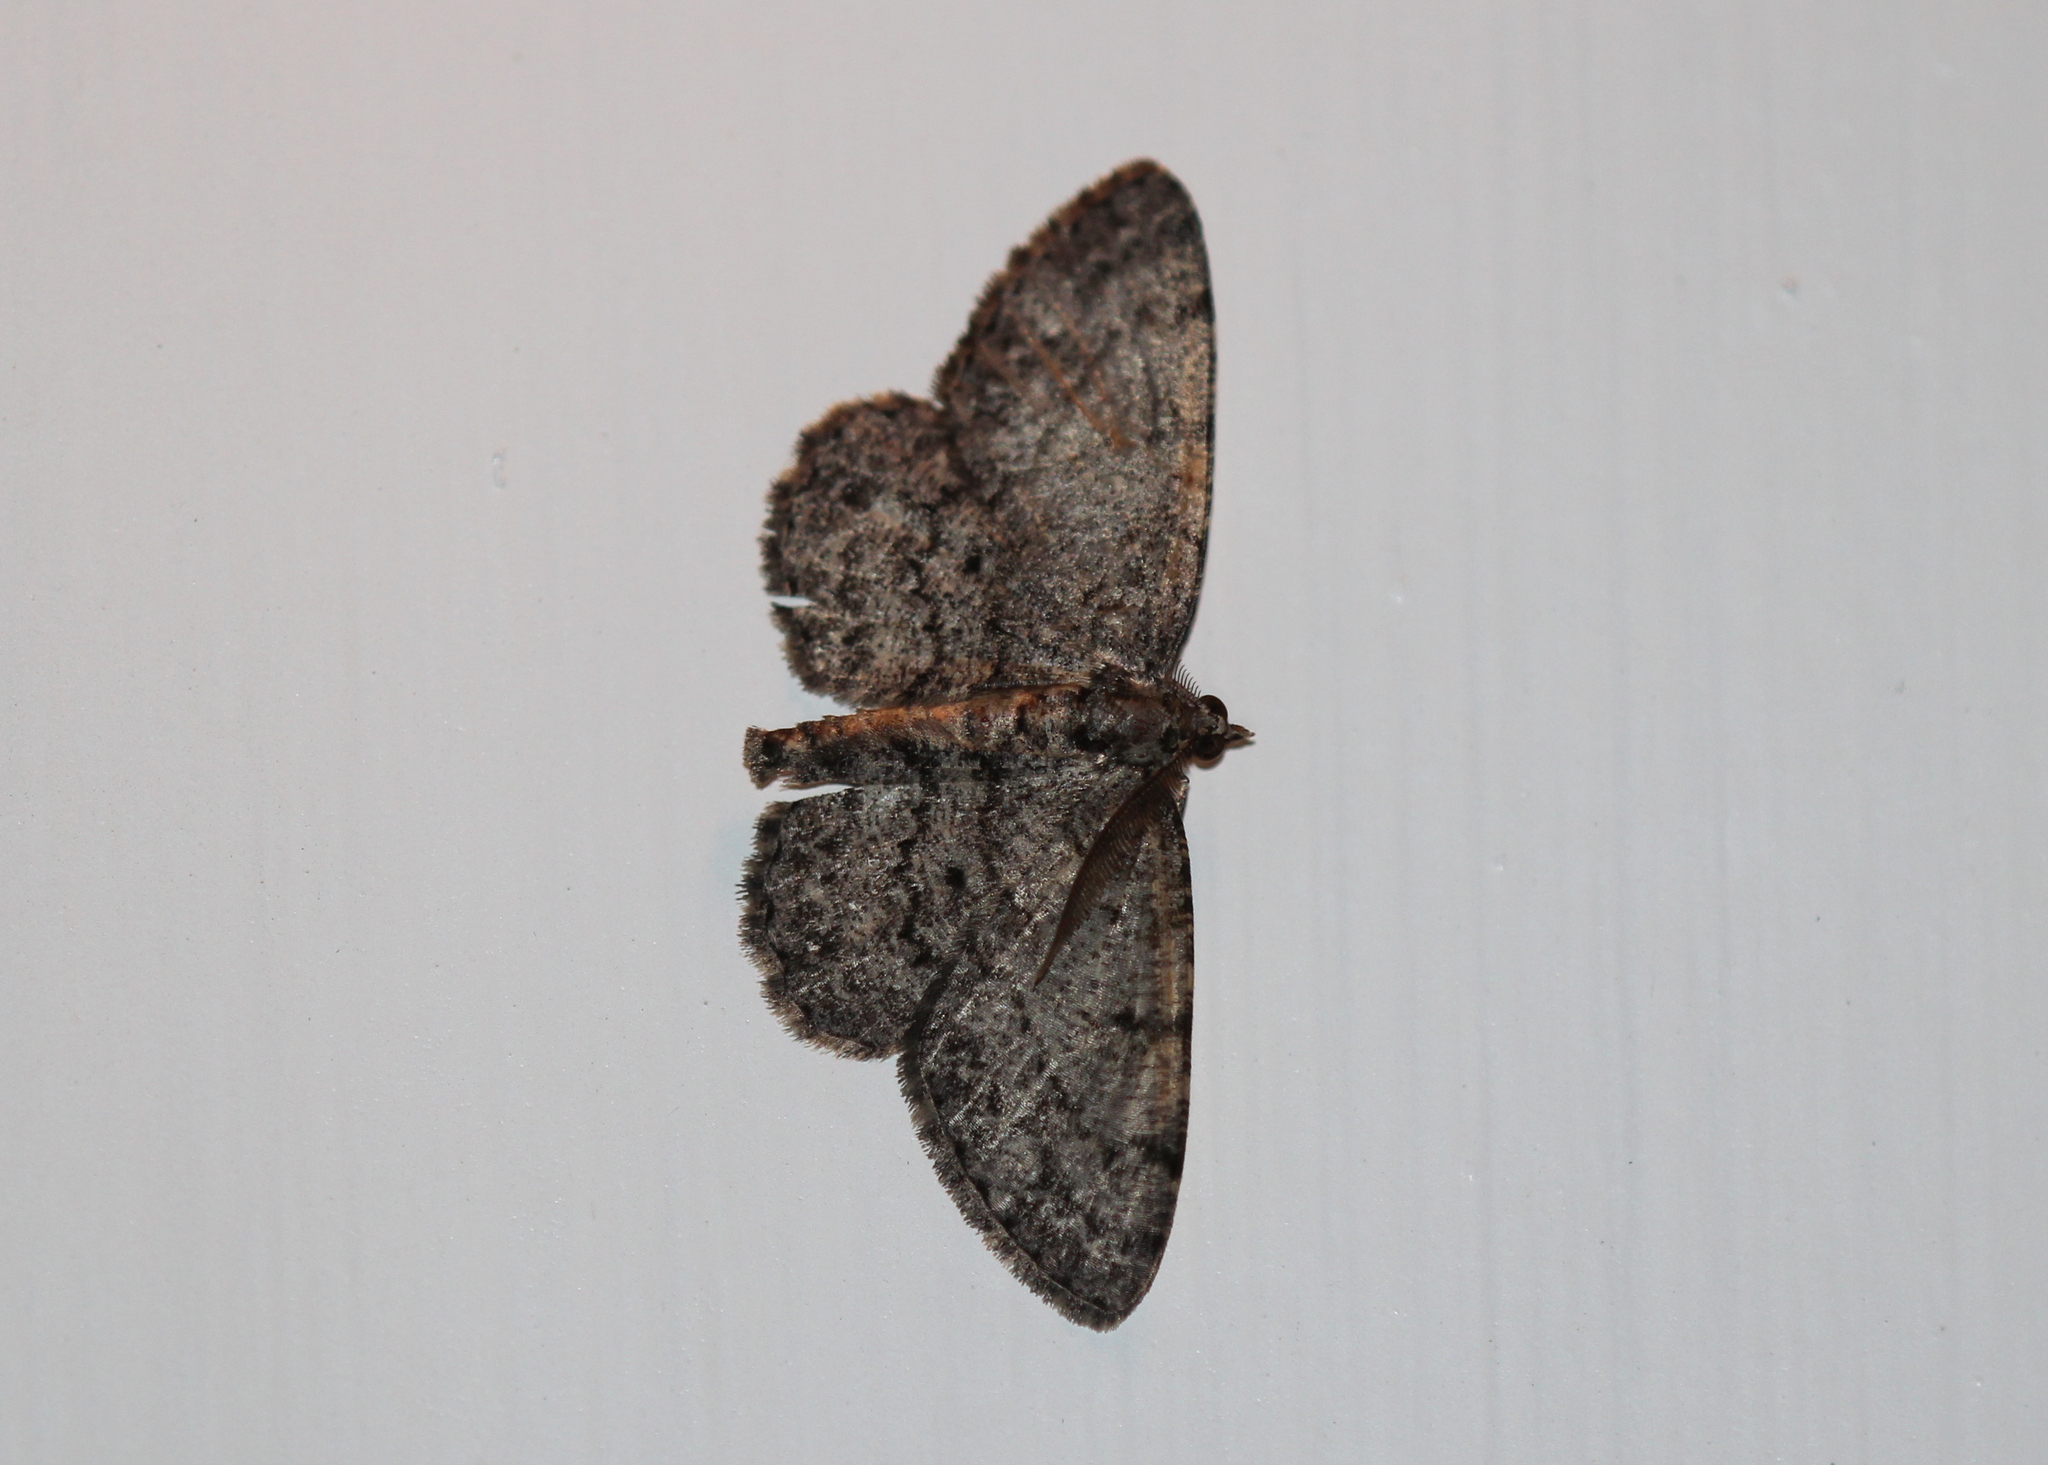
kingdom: Animalia
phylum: Arthropoda
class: Insecta
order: Lepidoptera
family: Geometridae
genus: Protoboarmia
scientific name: Protoboarmia porcelaria
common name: Porcelain gray
